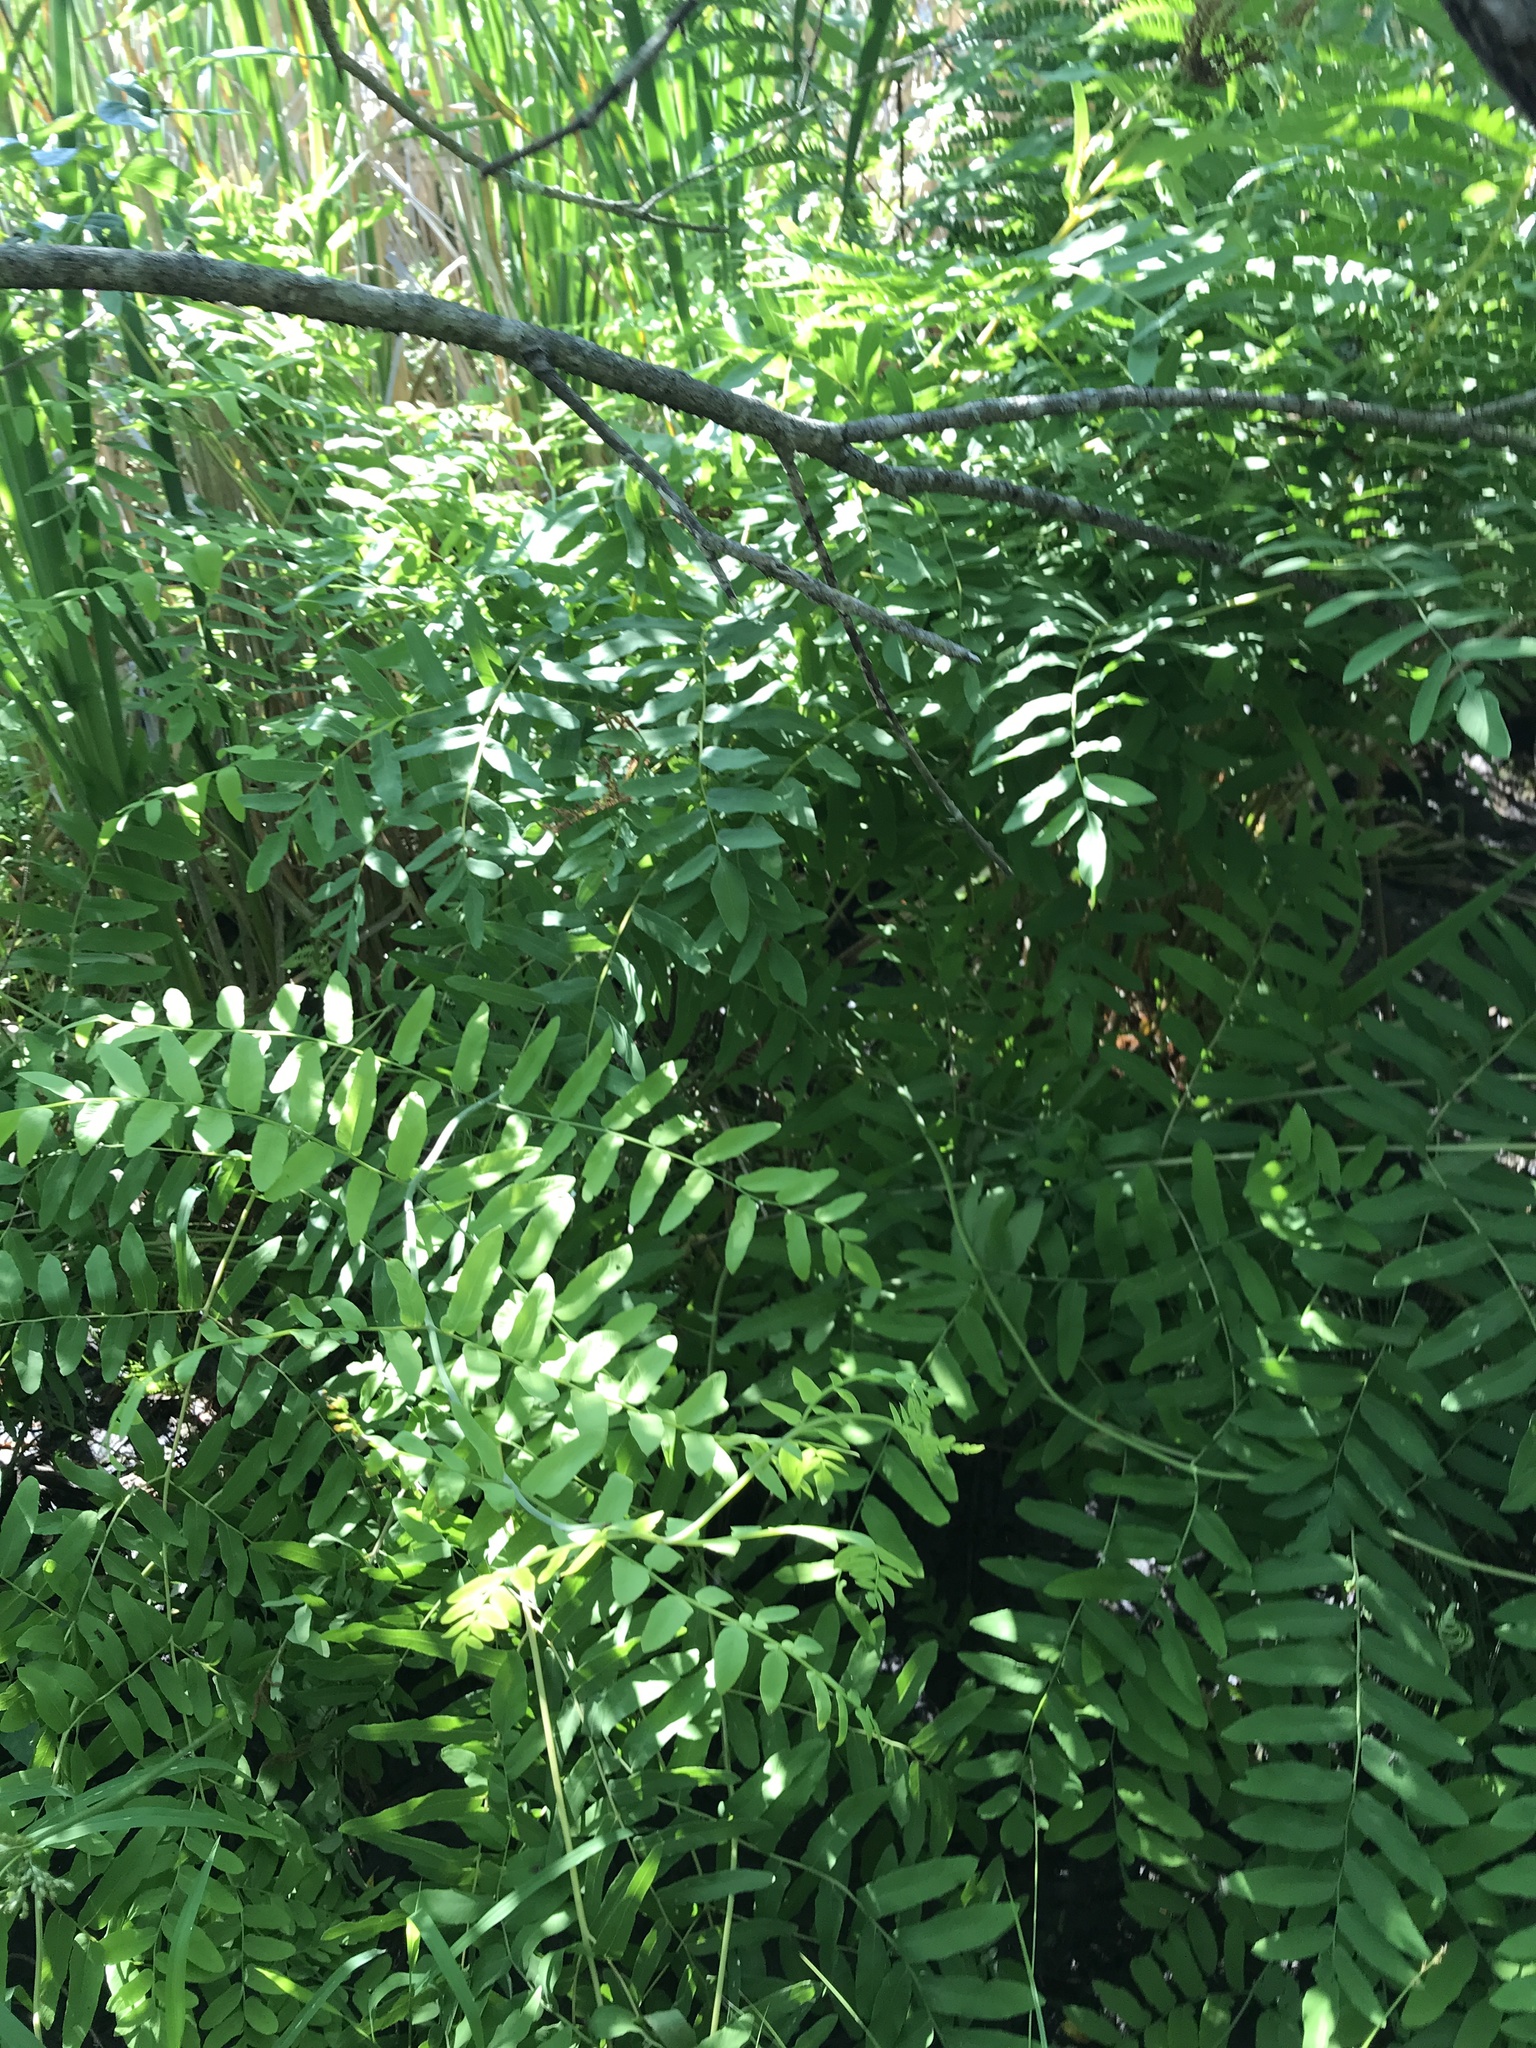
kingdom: Plantae
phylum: Tracheophyta
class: Polypodiopsida
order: Osmundales
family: Osmundaceae
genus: Osmunda
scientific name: Osmunda spectabilis
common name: American royal fern
